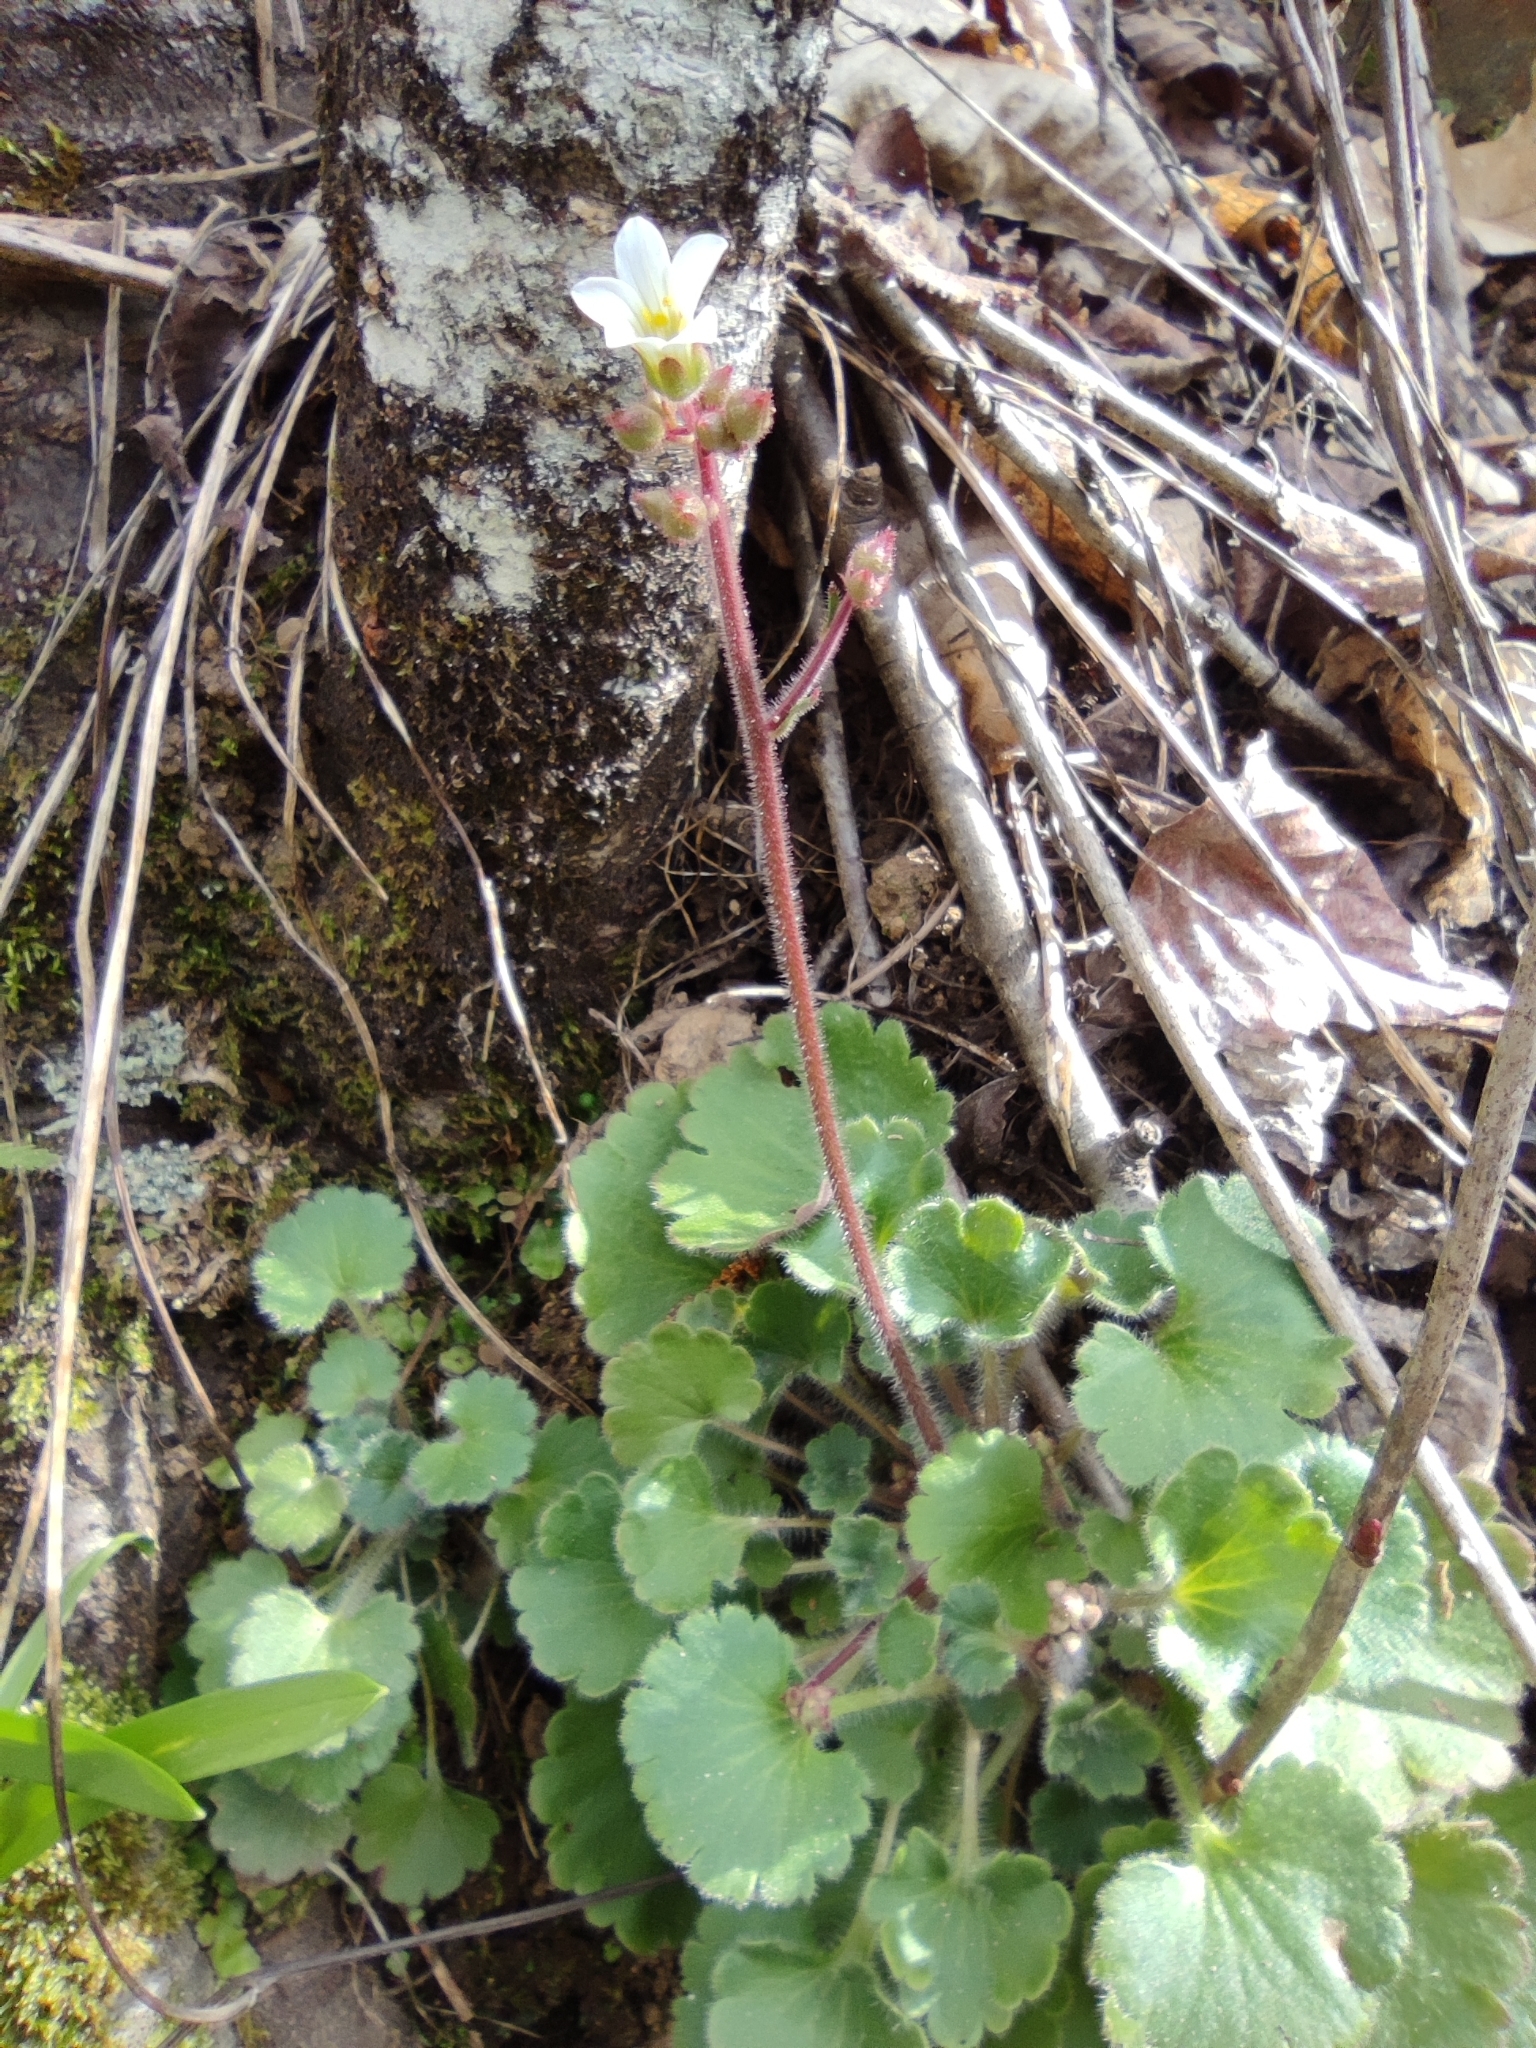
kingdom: Plantae
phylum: Tracheophyta
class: Magnoliopsida
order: Saxifragales
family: Saxifragaceae
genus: Saxifraga
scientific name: Saxifraga granulata
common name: Meadow saxifrage
